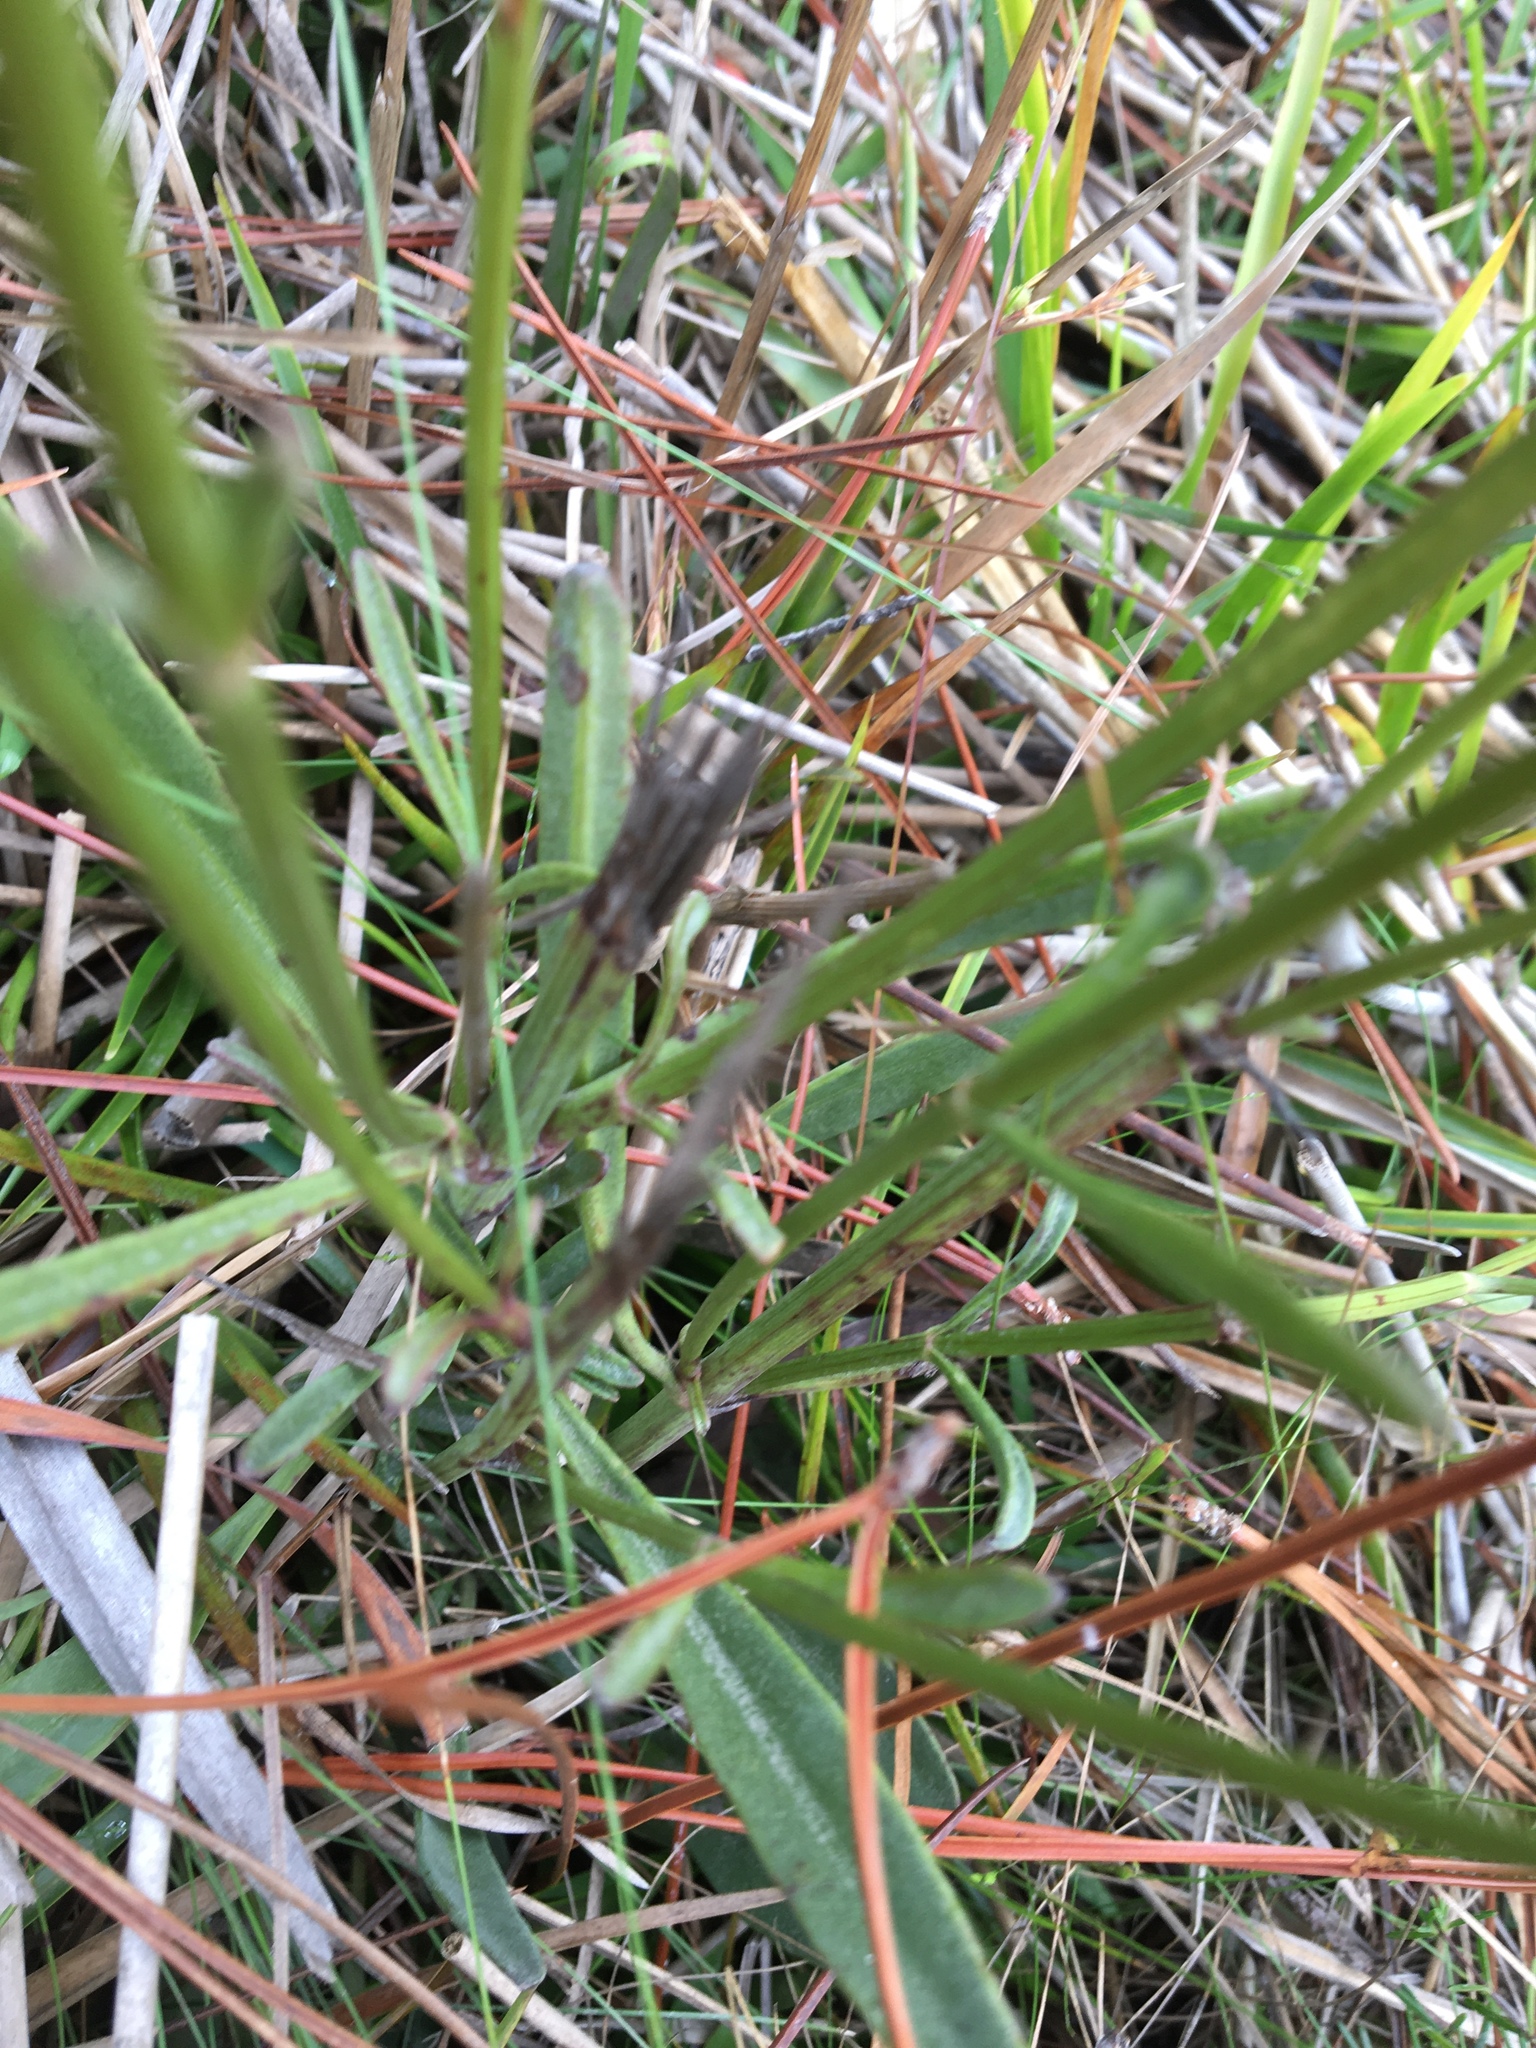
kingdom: Plantae
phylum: Tracheophyta
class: Magnoliopsida
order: Asterales
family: Asteraceae
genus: Coreopsis
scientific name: Coreopsis gladiata
